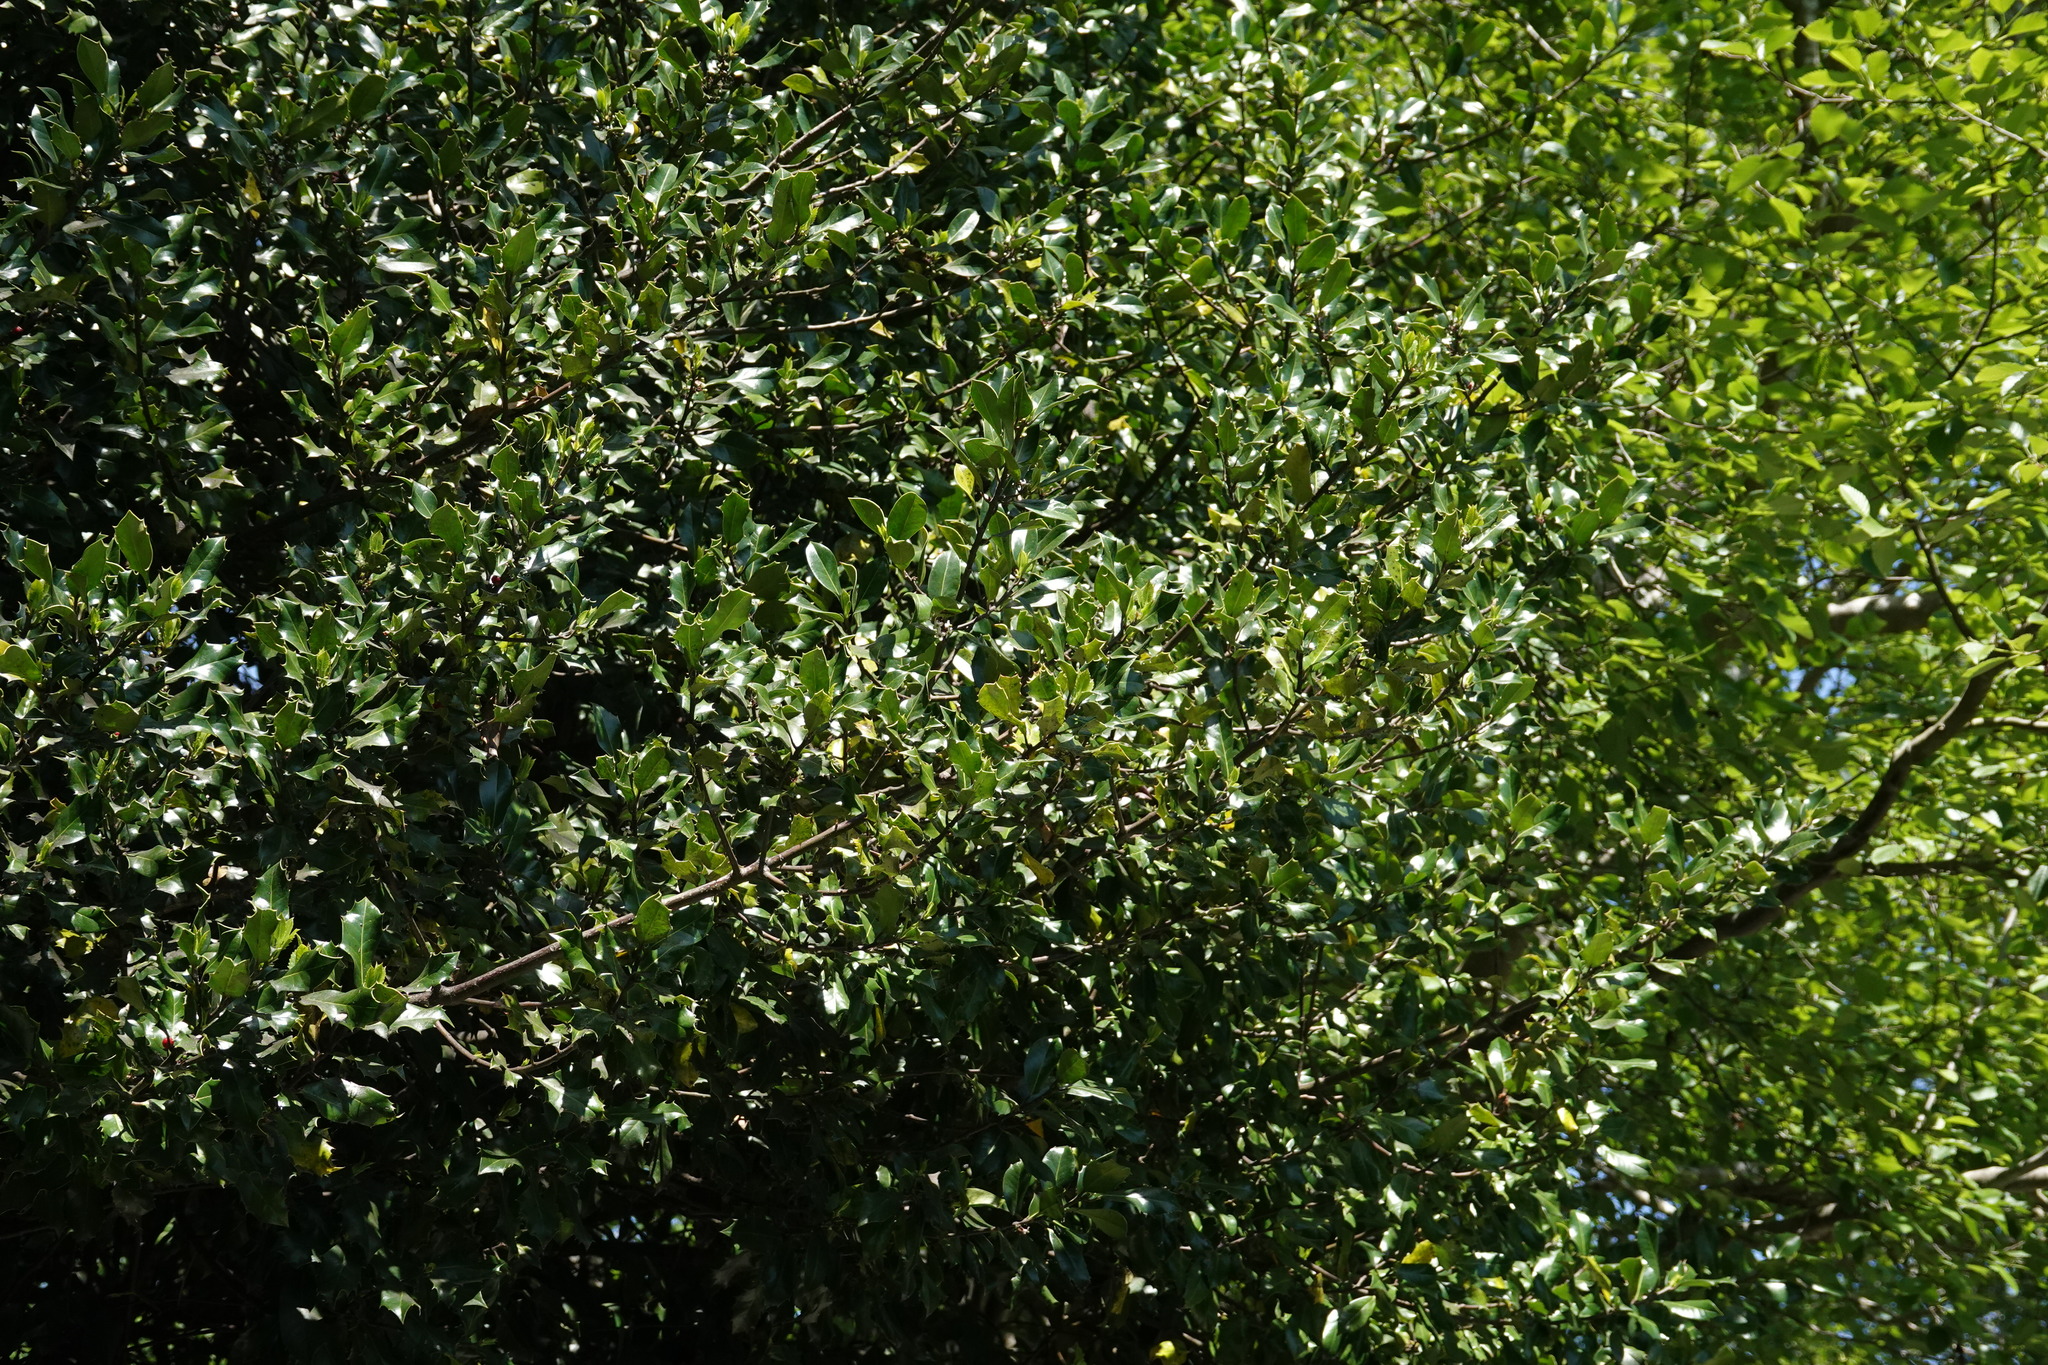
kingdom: Plantae
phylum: Tracheophyta
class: Magnoliopsida
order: Aquifoliales
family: Aquifoliaceae
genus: Ilex
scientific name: Ilex aquifolium
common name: English holly
